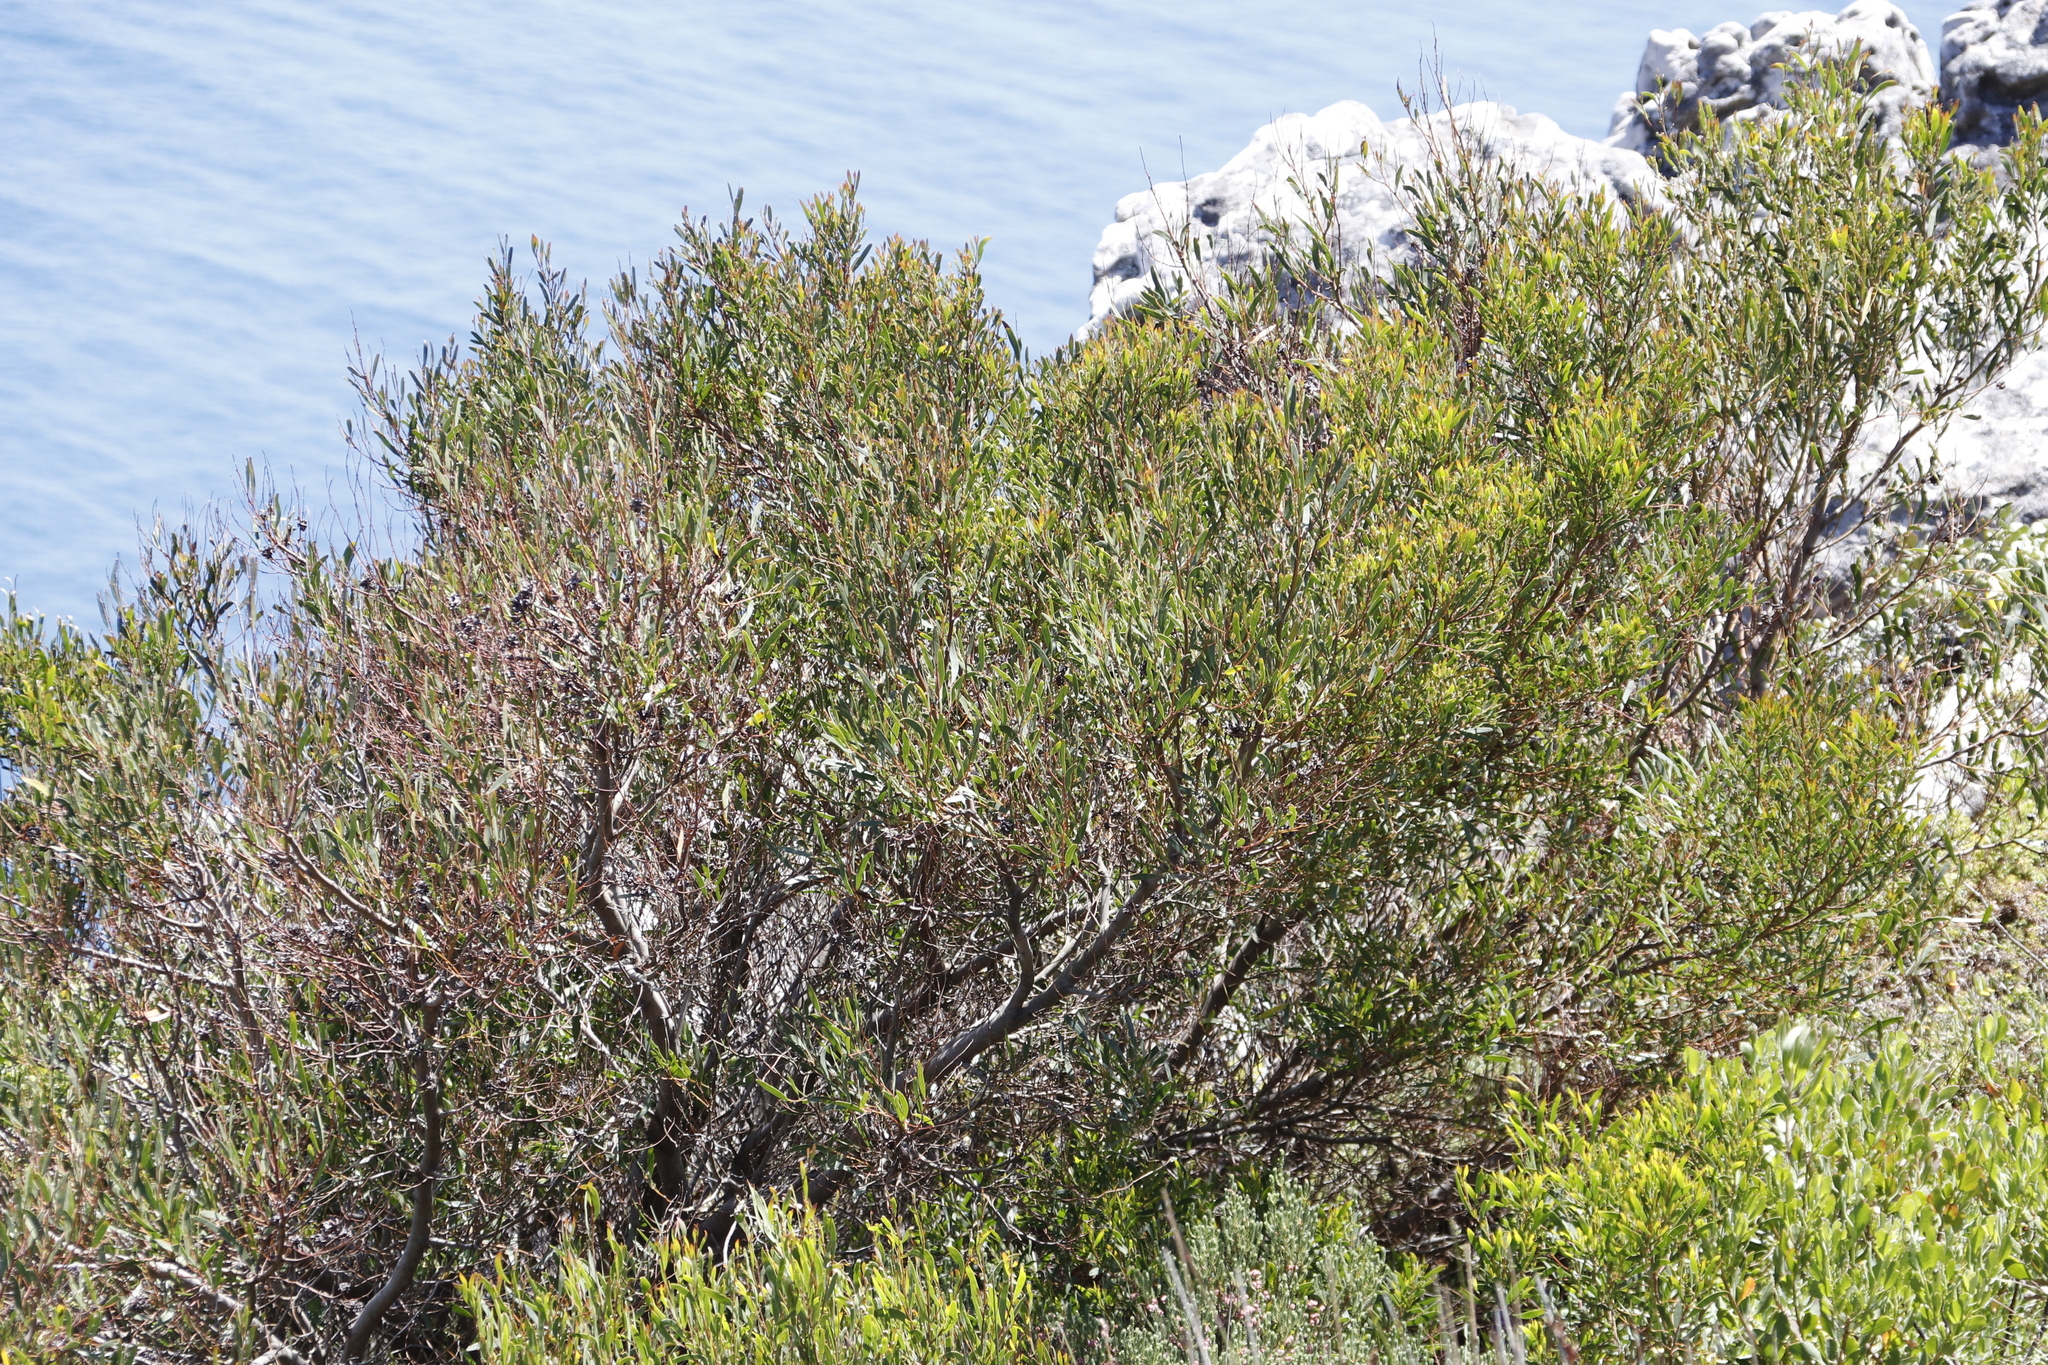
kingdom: Plantae
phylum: Tracheophyta
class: Magnoliopsida
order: Fabales
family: Fabaceae
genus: Acacia
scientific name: Acacia cyclops
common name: Coastal wattle
